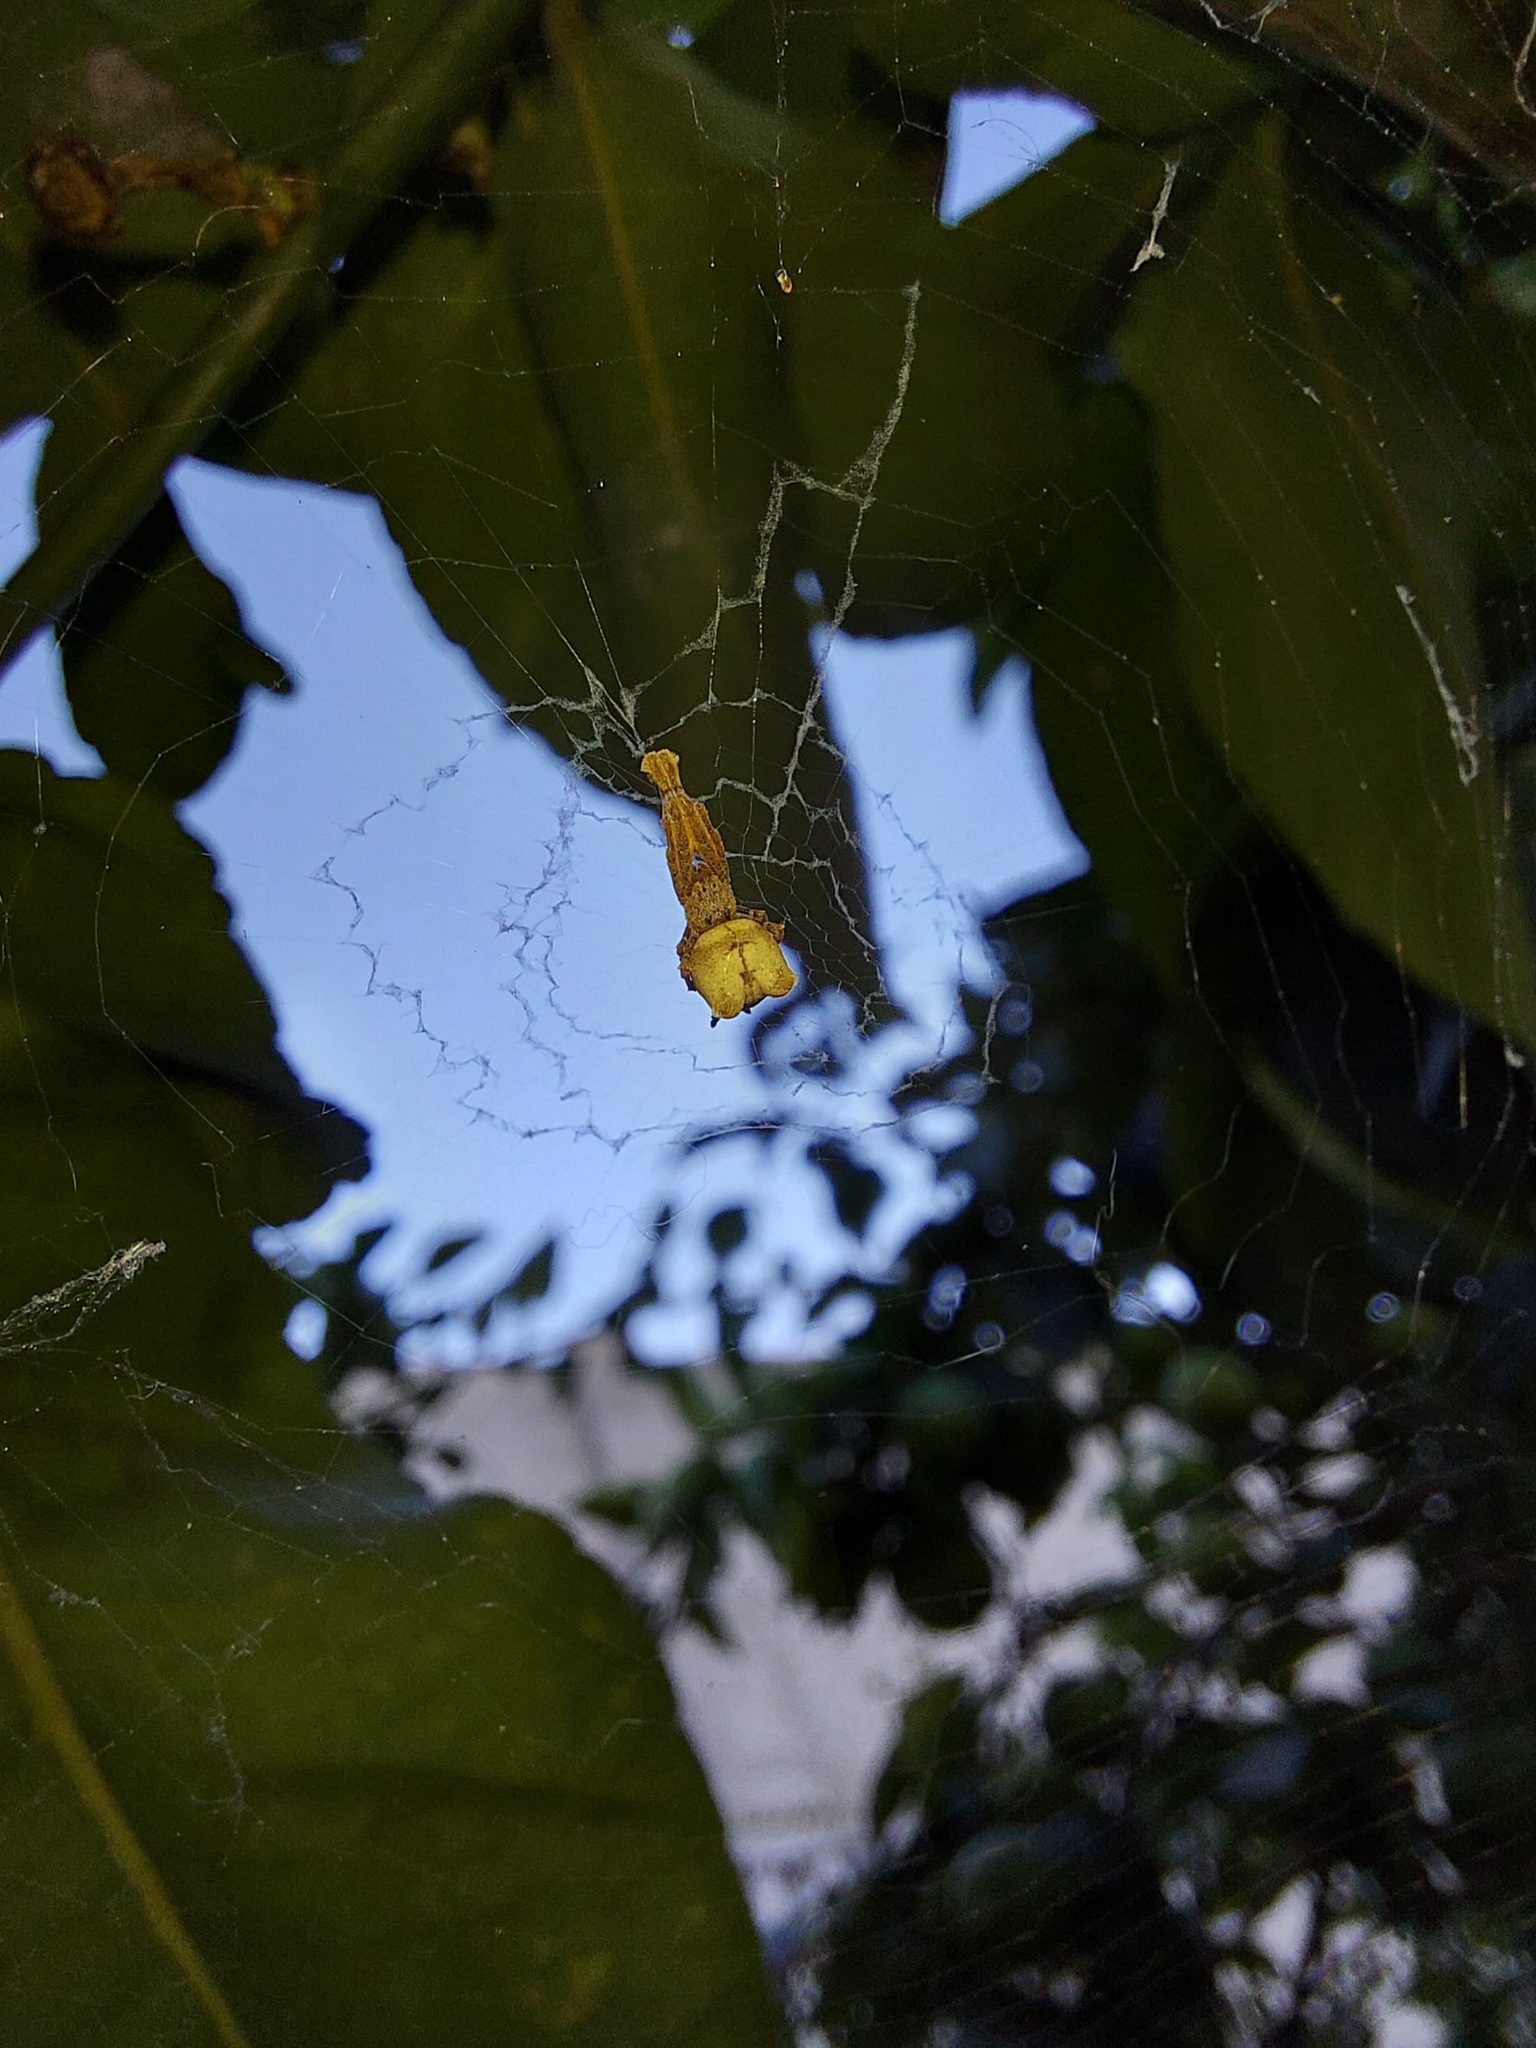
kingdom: Animalia
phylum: Arthropoda
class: Arachnida
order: Araneae
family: Uloboridae
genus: Uloborus
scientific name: Uloborus plumipes
